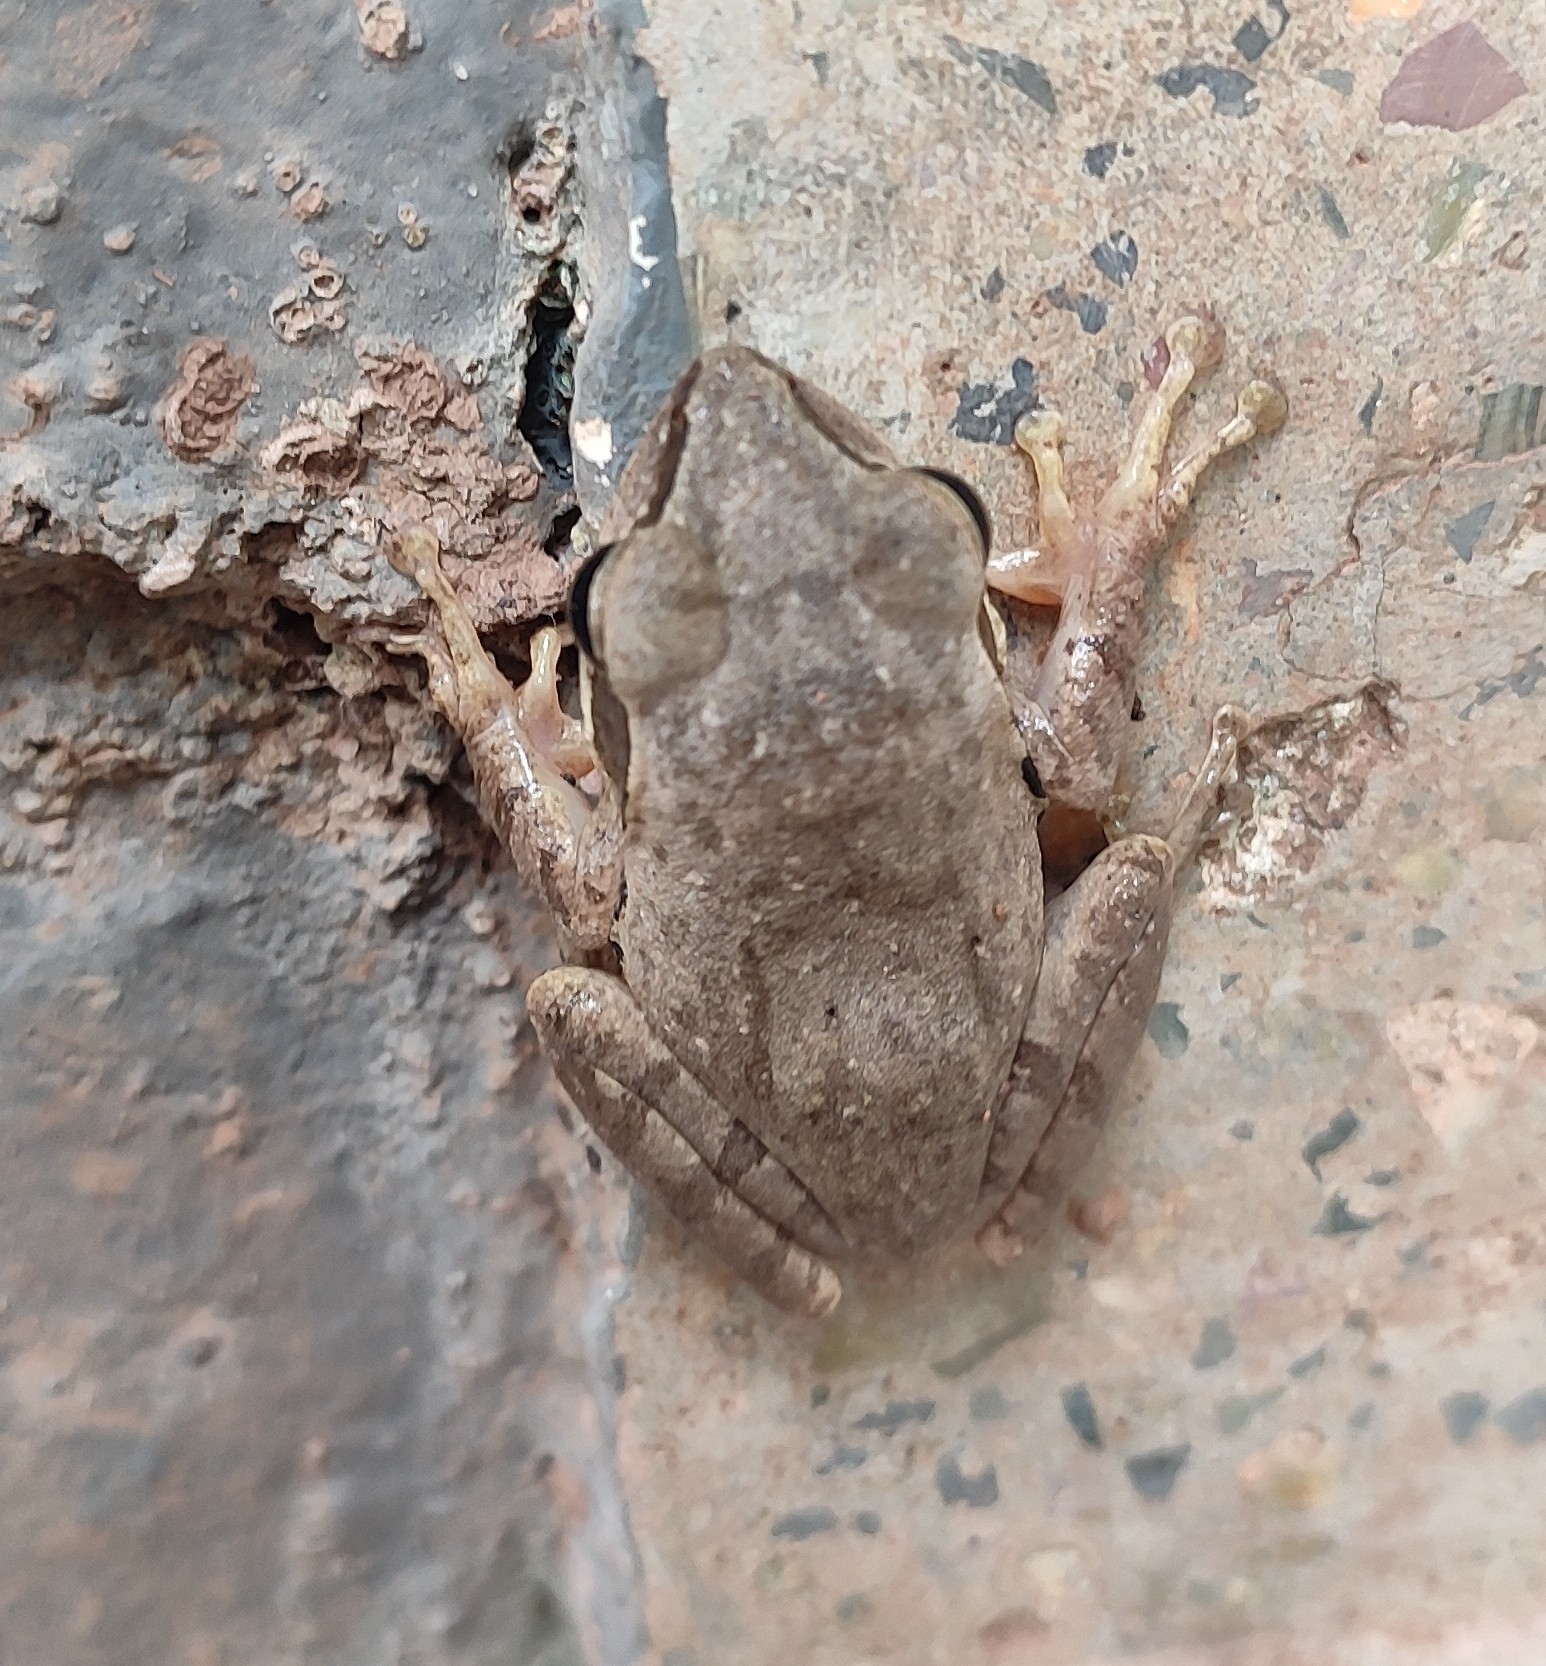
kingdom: Animalia
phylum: Chordata
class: Amphibia
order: Anura
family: Rhacophoridae
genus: Polypedates
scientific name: Polypedates maculatus
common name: Himalayan tree frog
